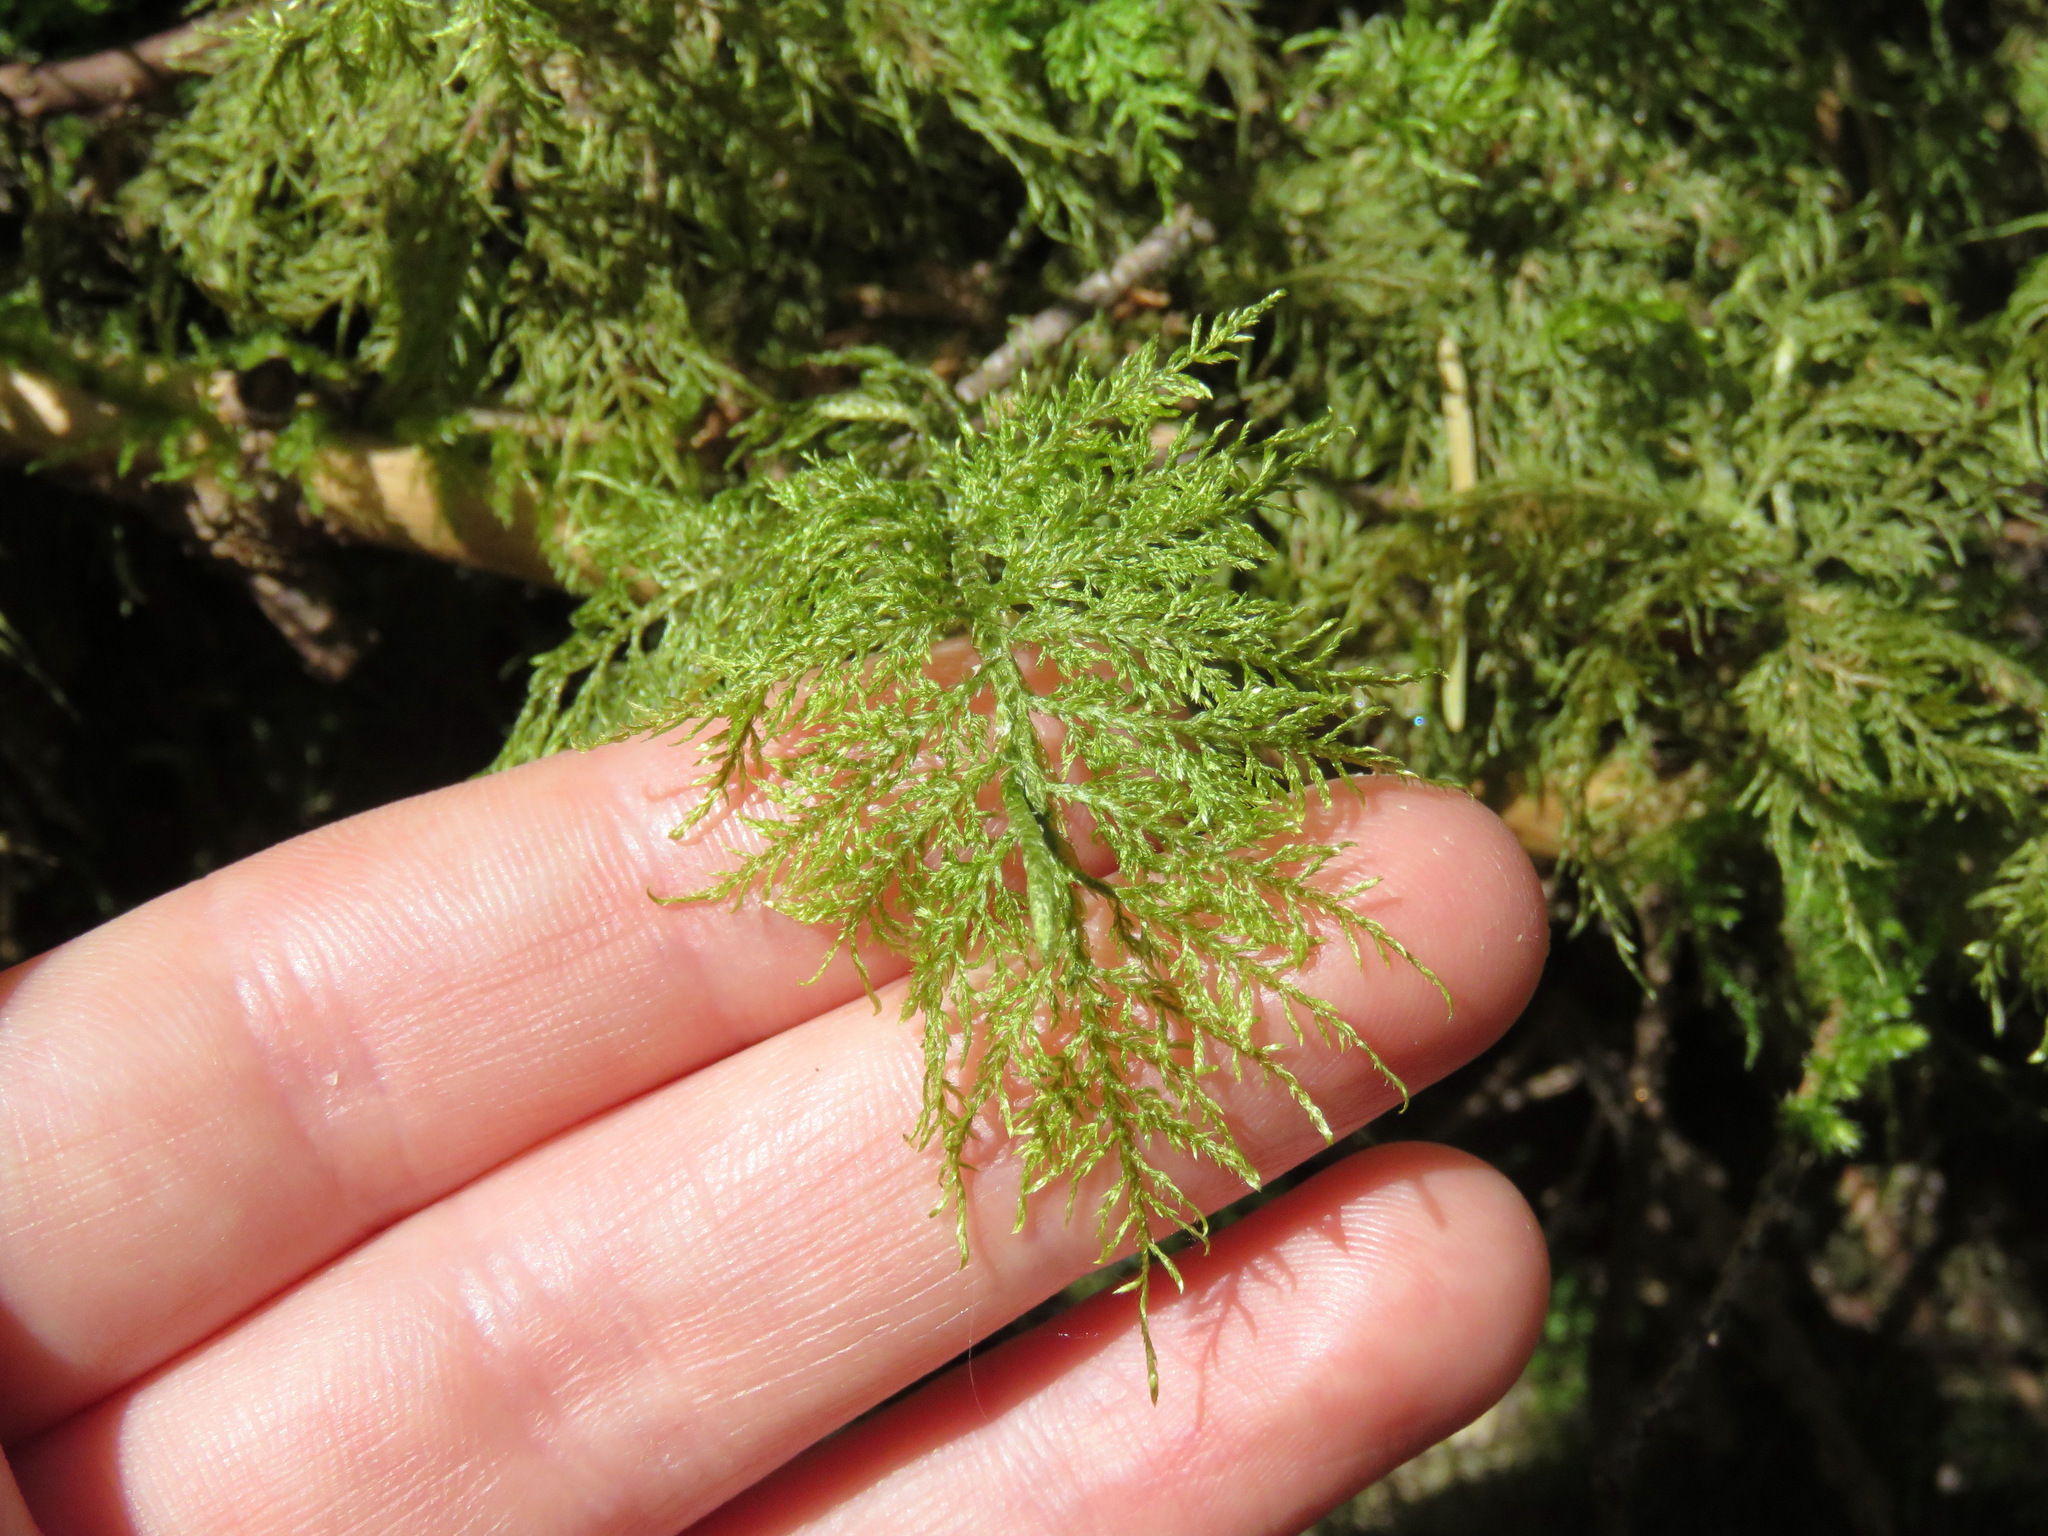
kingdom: Plantae
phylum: Bryophyta
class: Bryopsida
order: Hypnales
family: Hylocomiaceae
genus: Hylocomium
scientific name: Hylocomium splendens
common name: Stairstep moss
